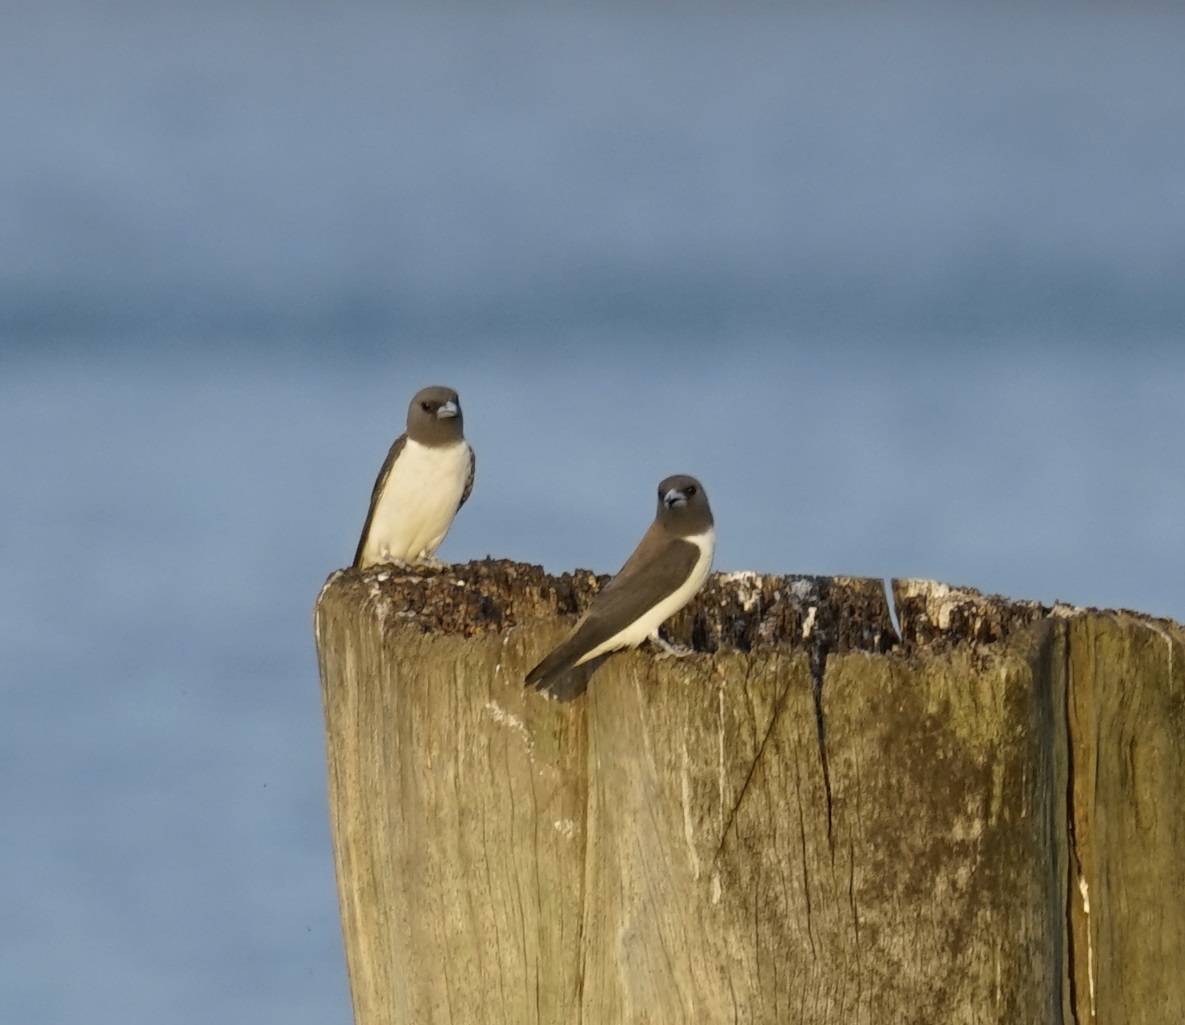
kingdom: Animalia
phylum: Chordata
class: Aves
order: Passeriformes
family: Artamidae
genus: Artamus
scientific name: Artamus leucoryn
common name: White-breasted woodswallow
